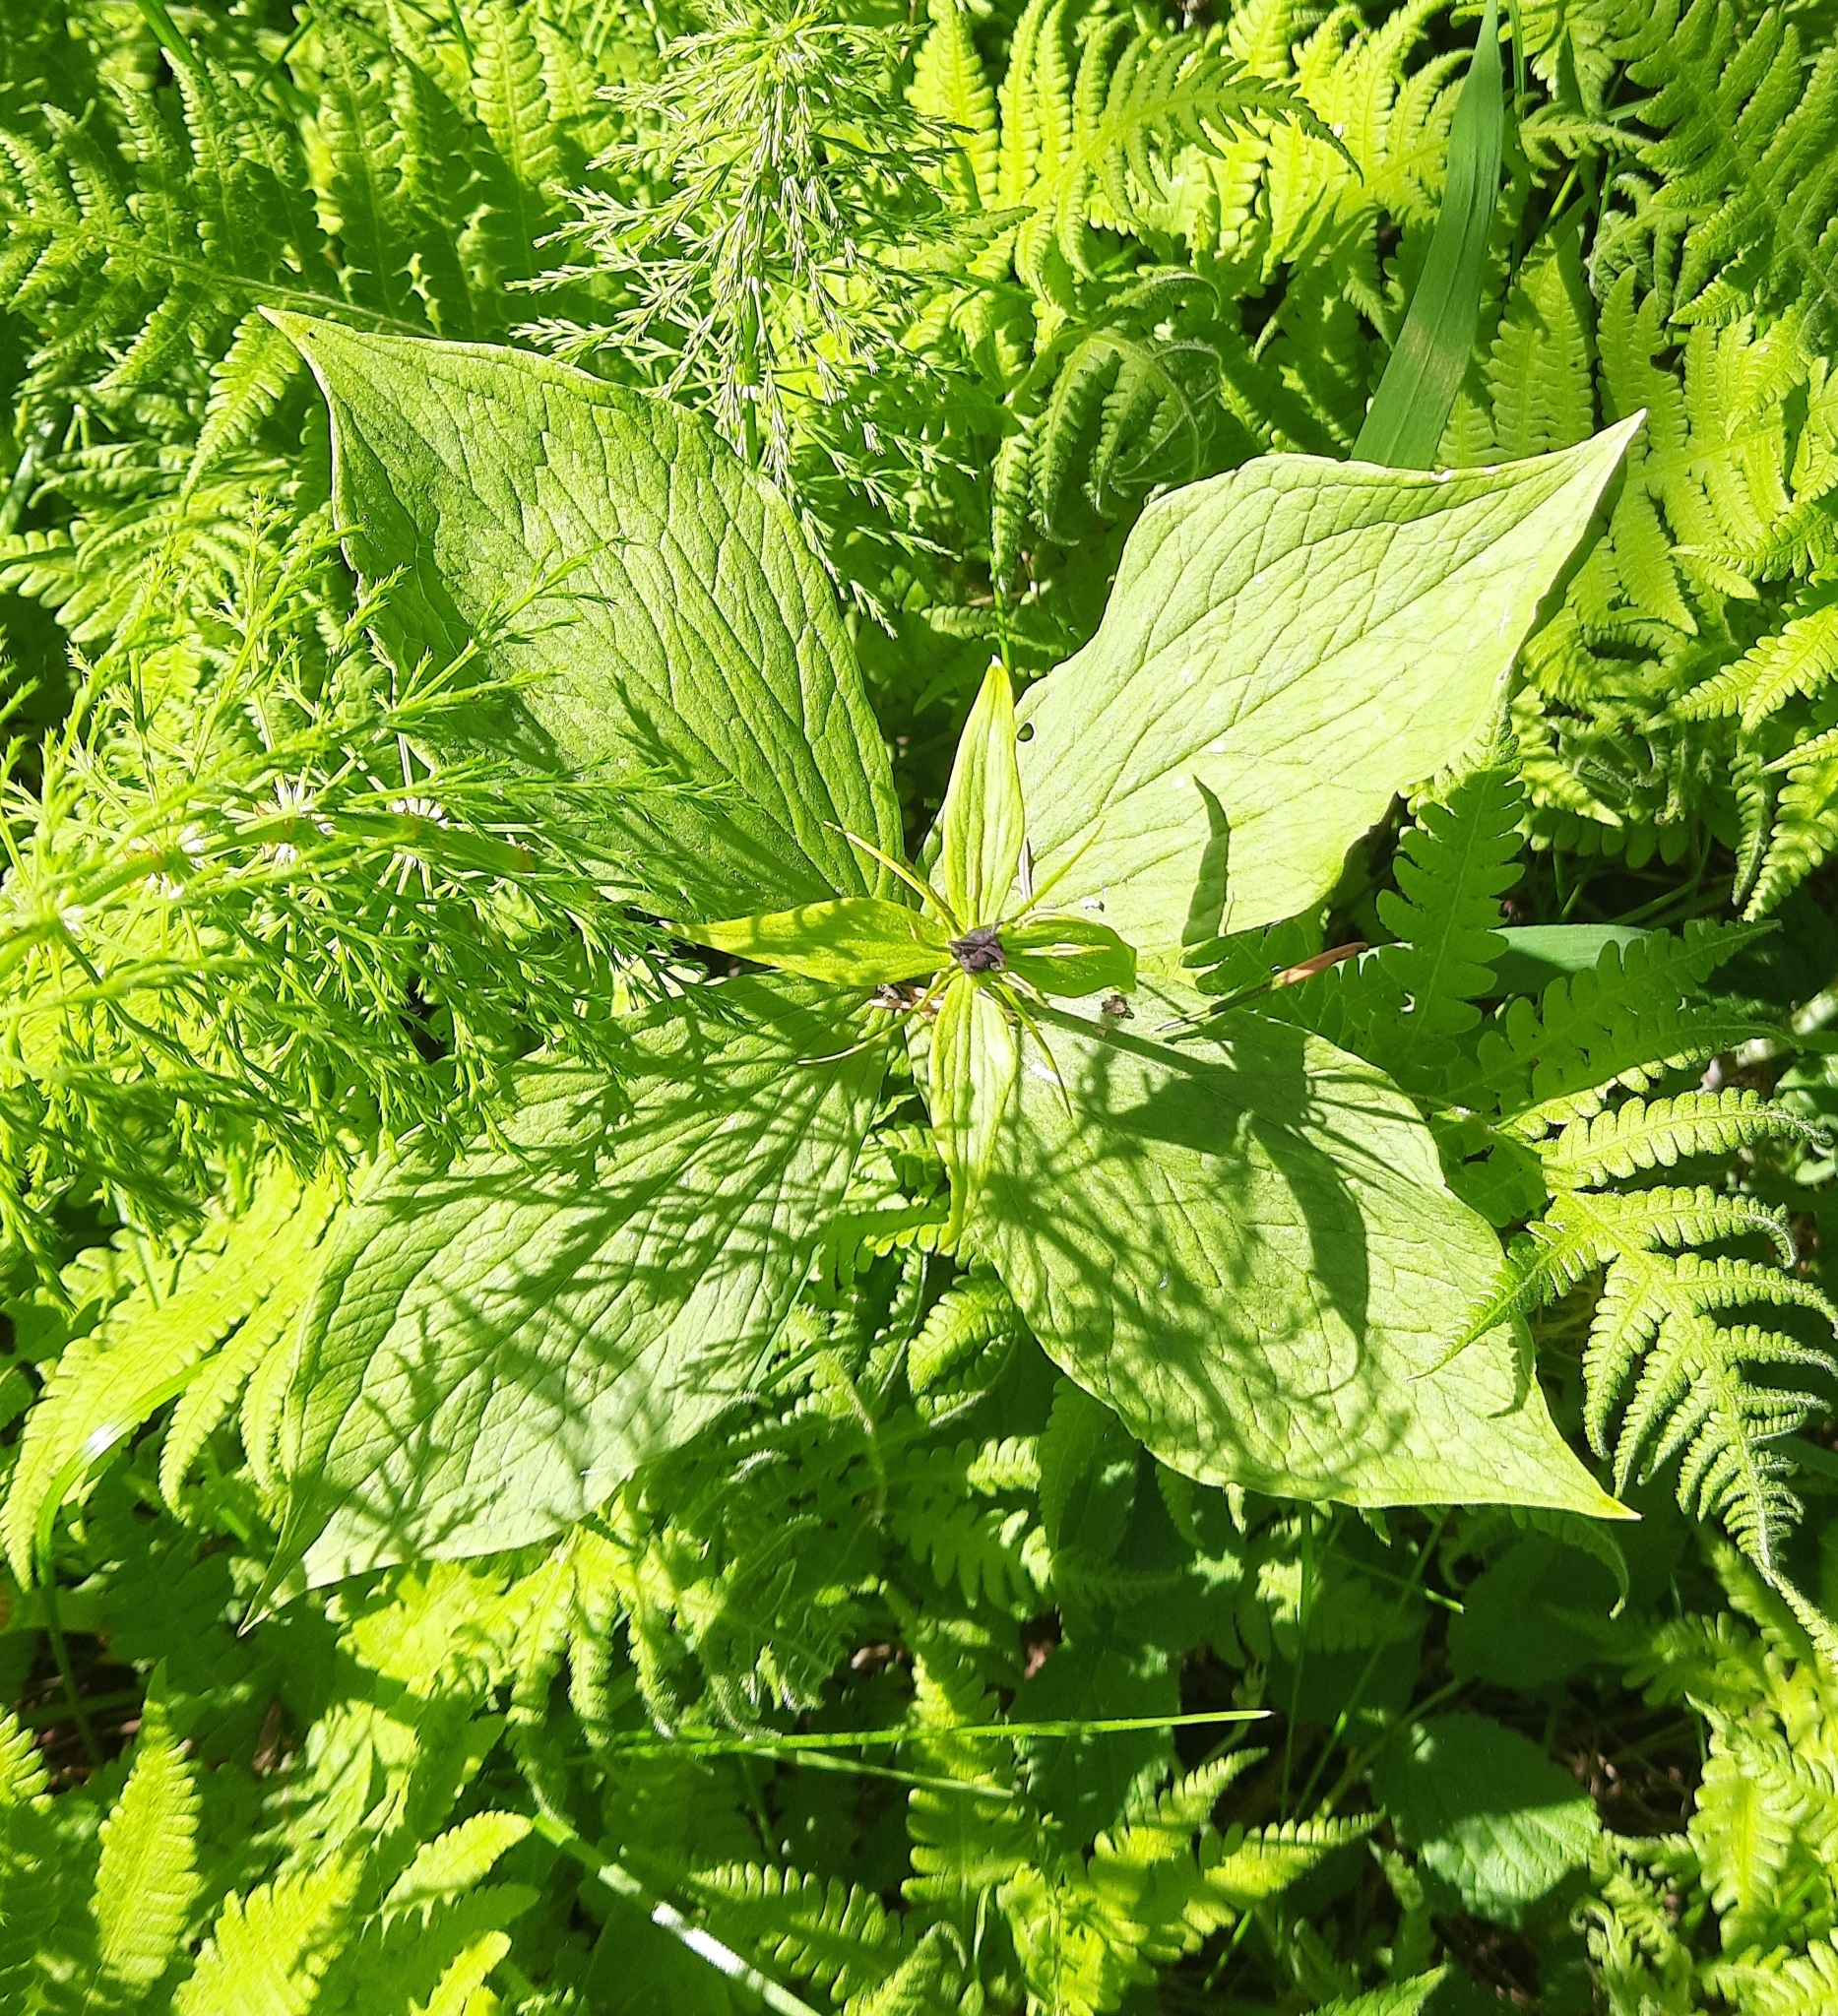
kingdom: Plantae
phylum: Tracheophyta
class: Liliopsida
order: Liliales
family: Melanthiaceae
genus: Paris
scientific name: Paris quadrifolia
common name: Herb-paris
